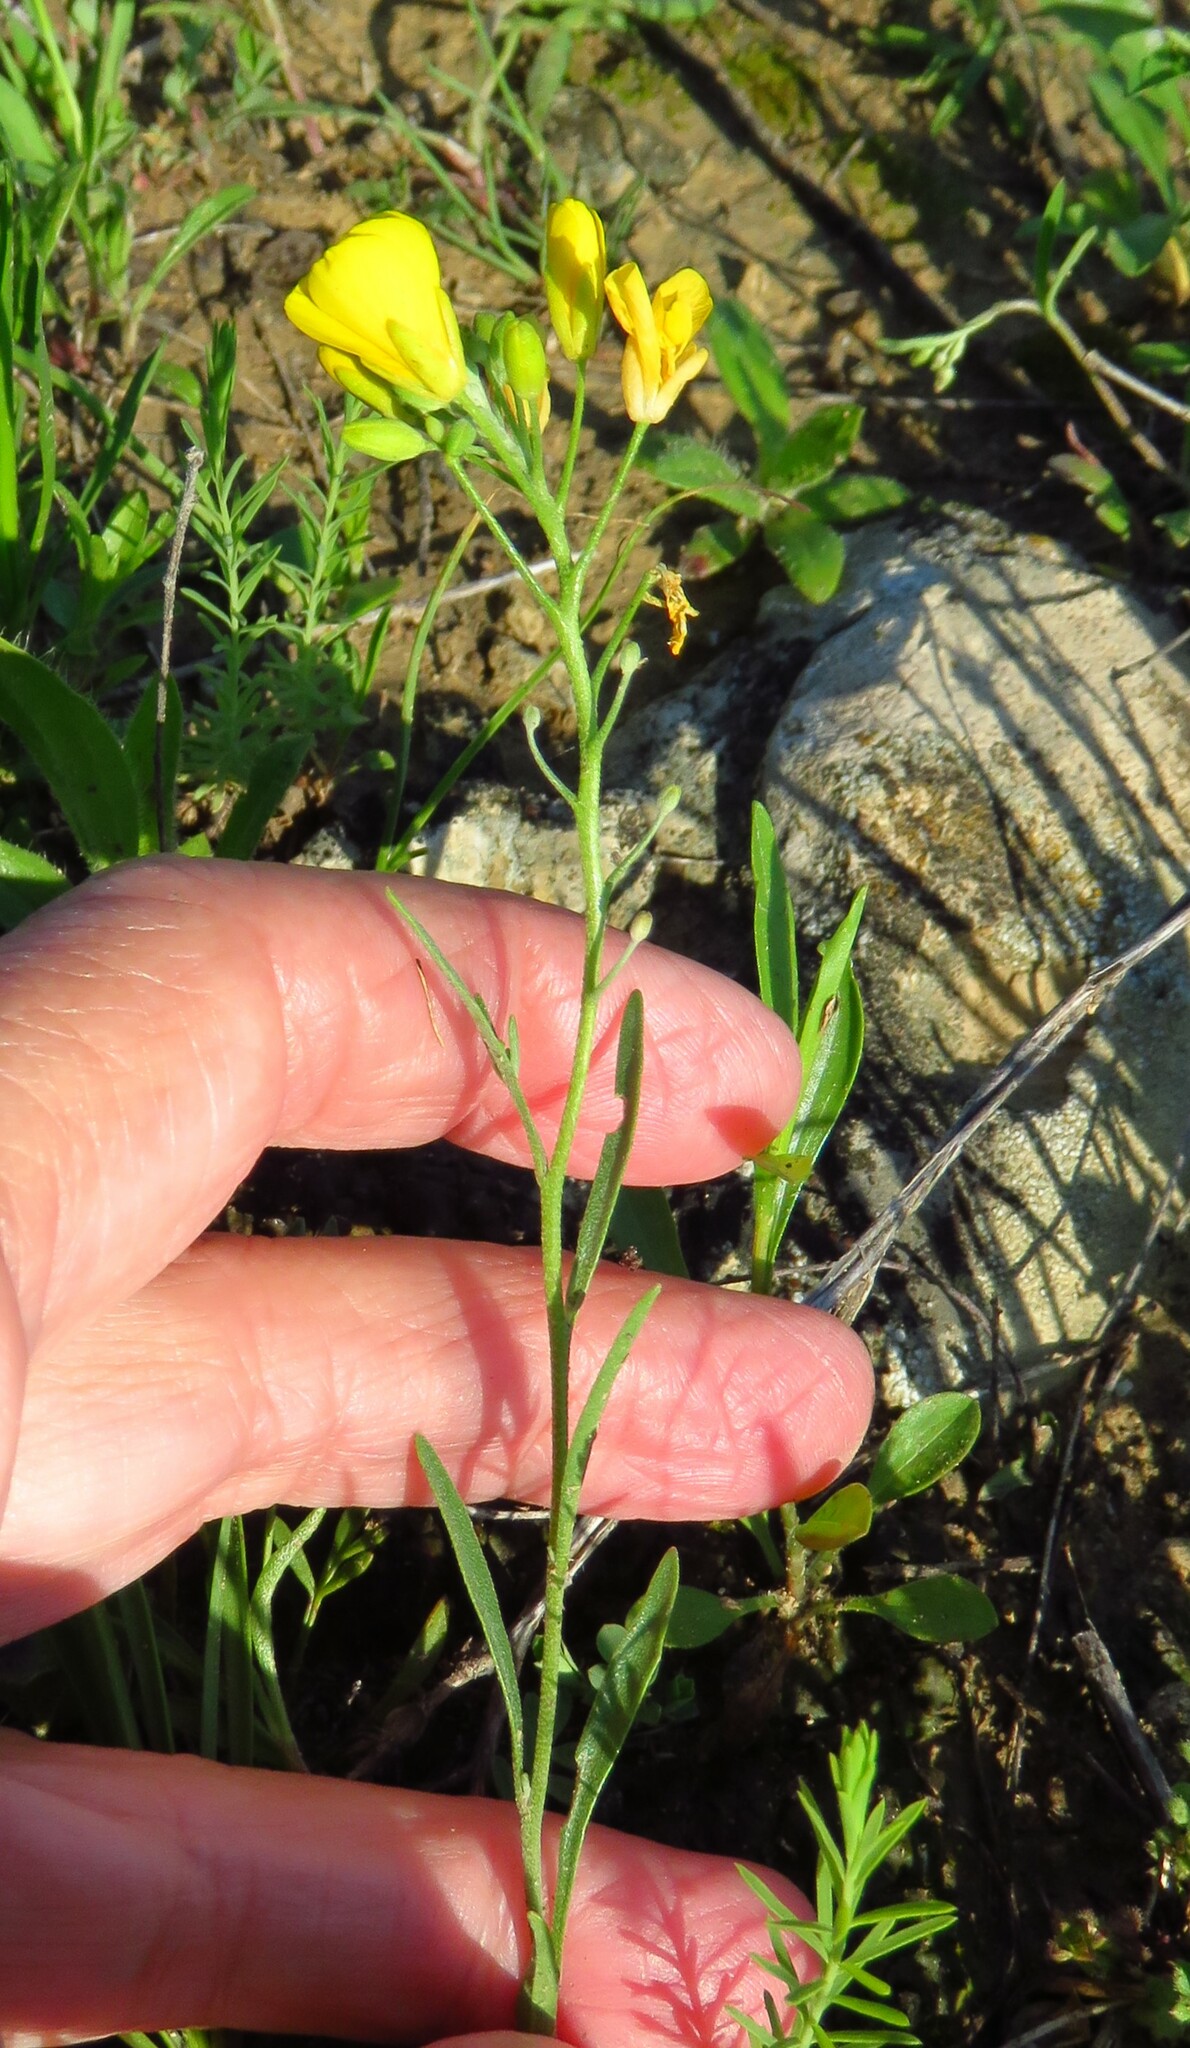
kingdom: Plantae
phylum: Tracheophyta
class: Magnoliopsida
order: Brassicales
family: Brassicaceae
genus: Physaria
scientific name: Physaria gracilis
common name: Spreading bladderpod
